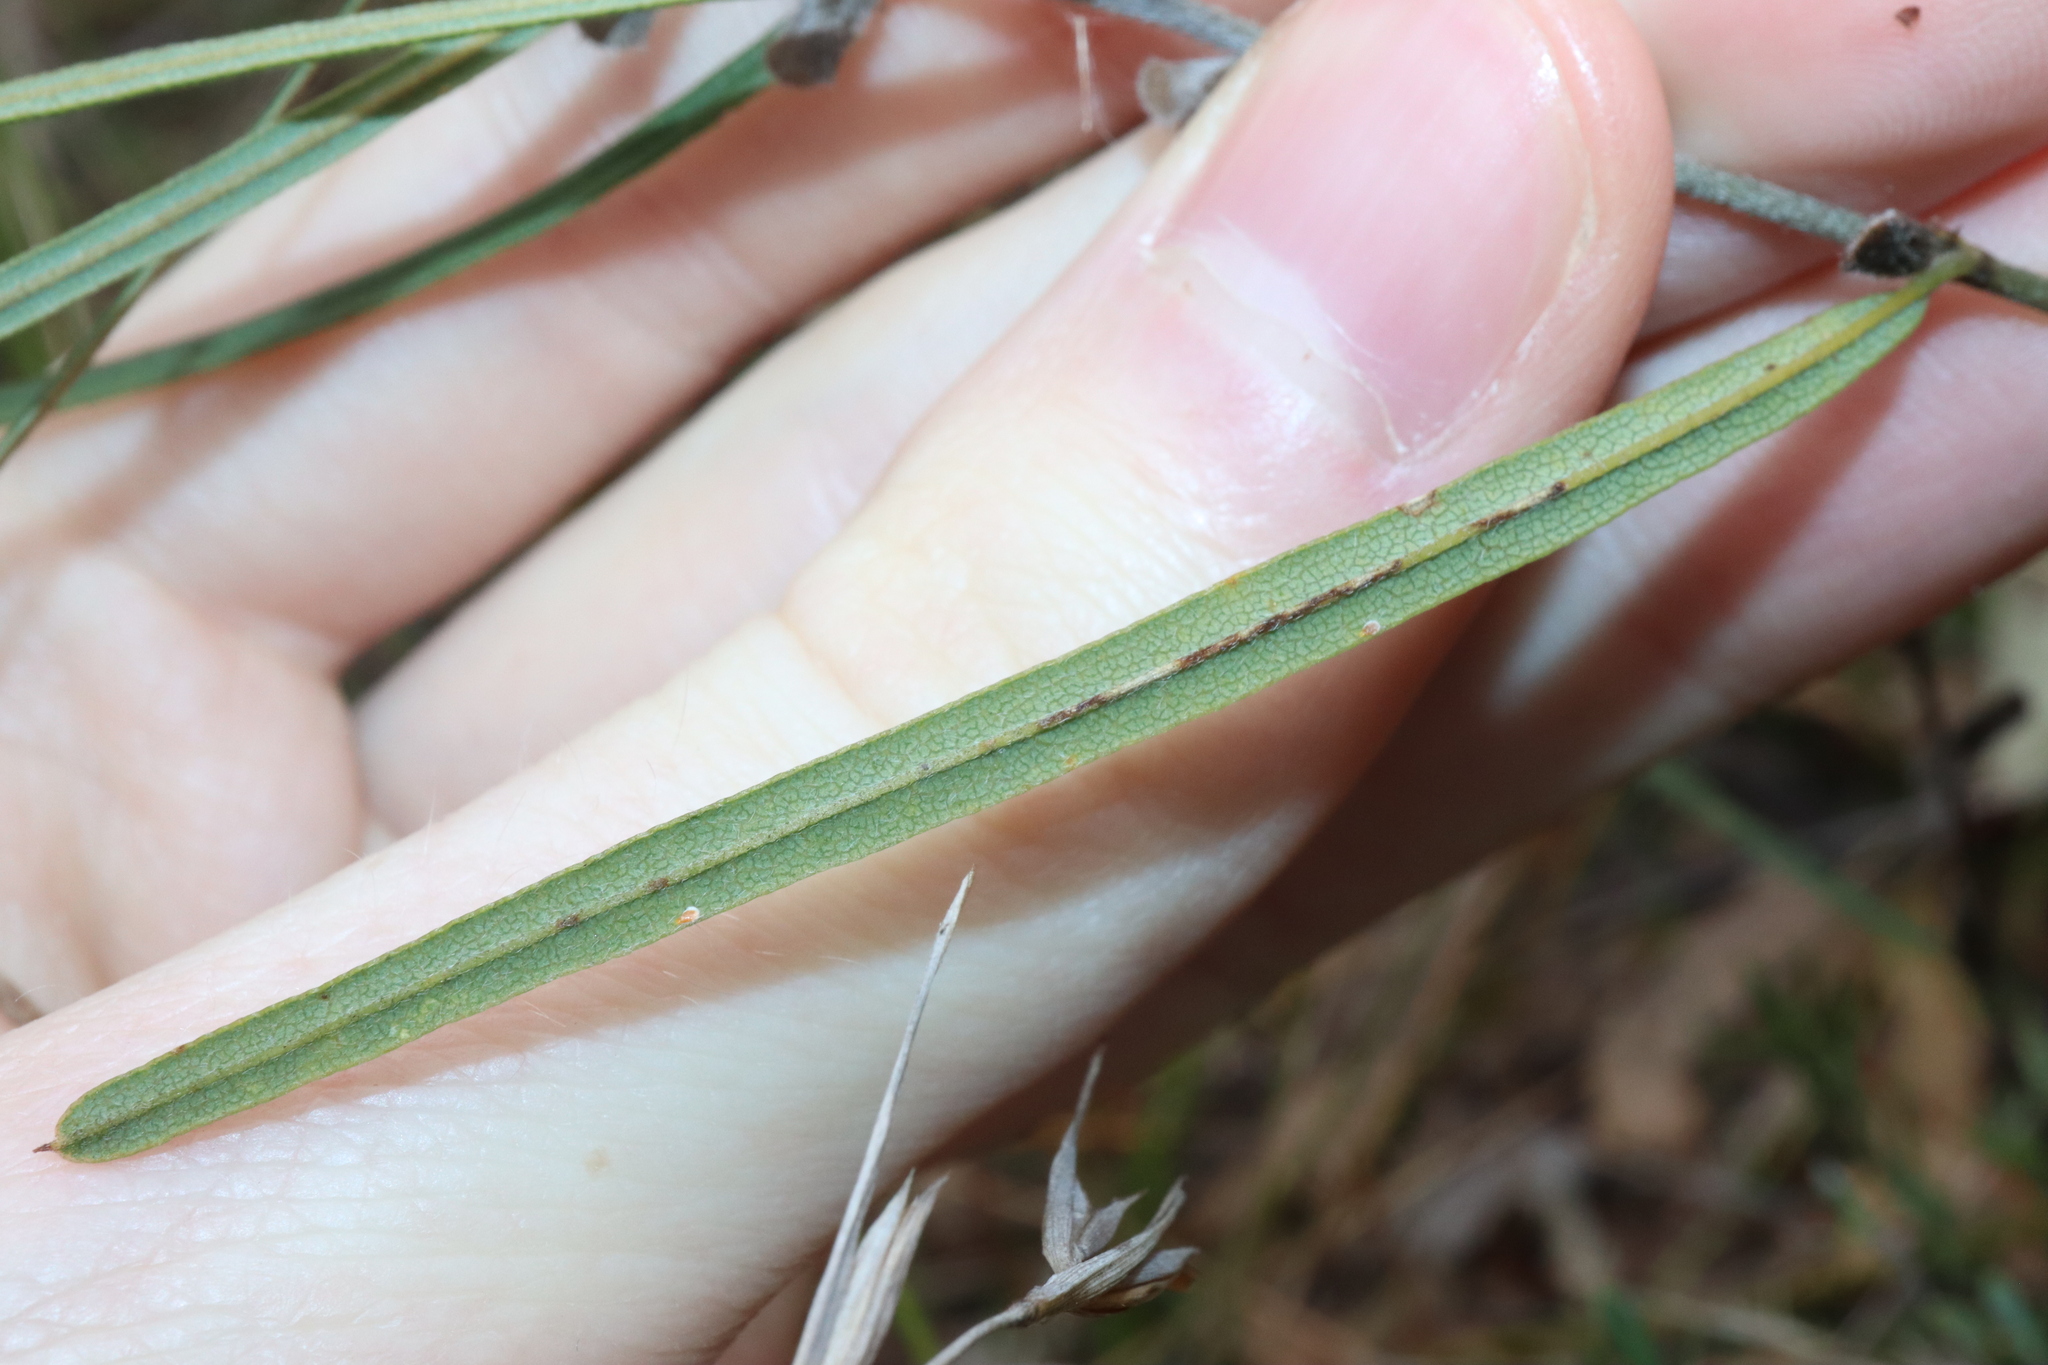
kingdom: Plantae
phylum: Tracheophyta
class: Magnoliopsida
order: Fabales
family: Fabaceae
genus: Hovea
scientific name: Hovea linearis
